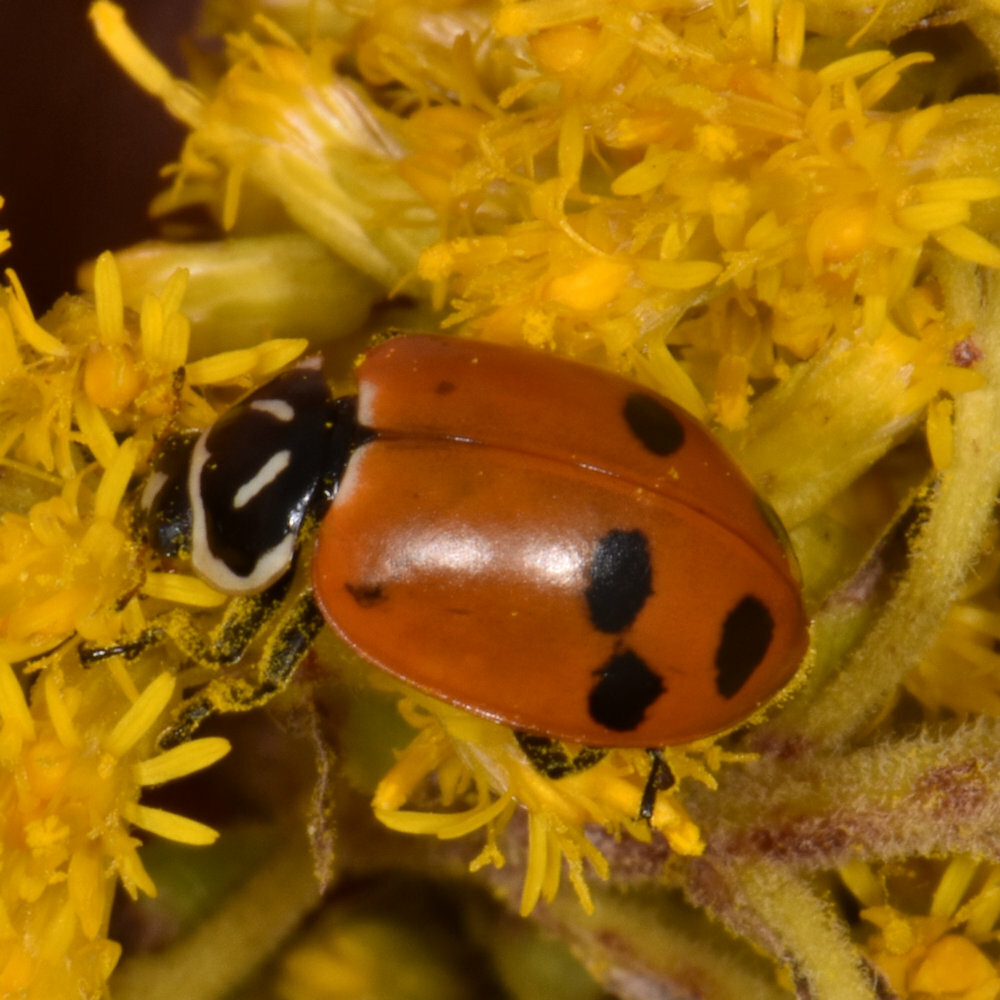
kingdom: Animalia
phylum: Arthropoda
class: Insecta
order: Coleoptera
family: Coccinellidae
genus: Hippodamia
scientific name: Hippodamia glacialis
